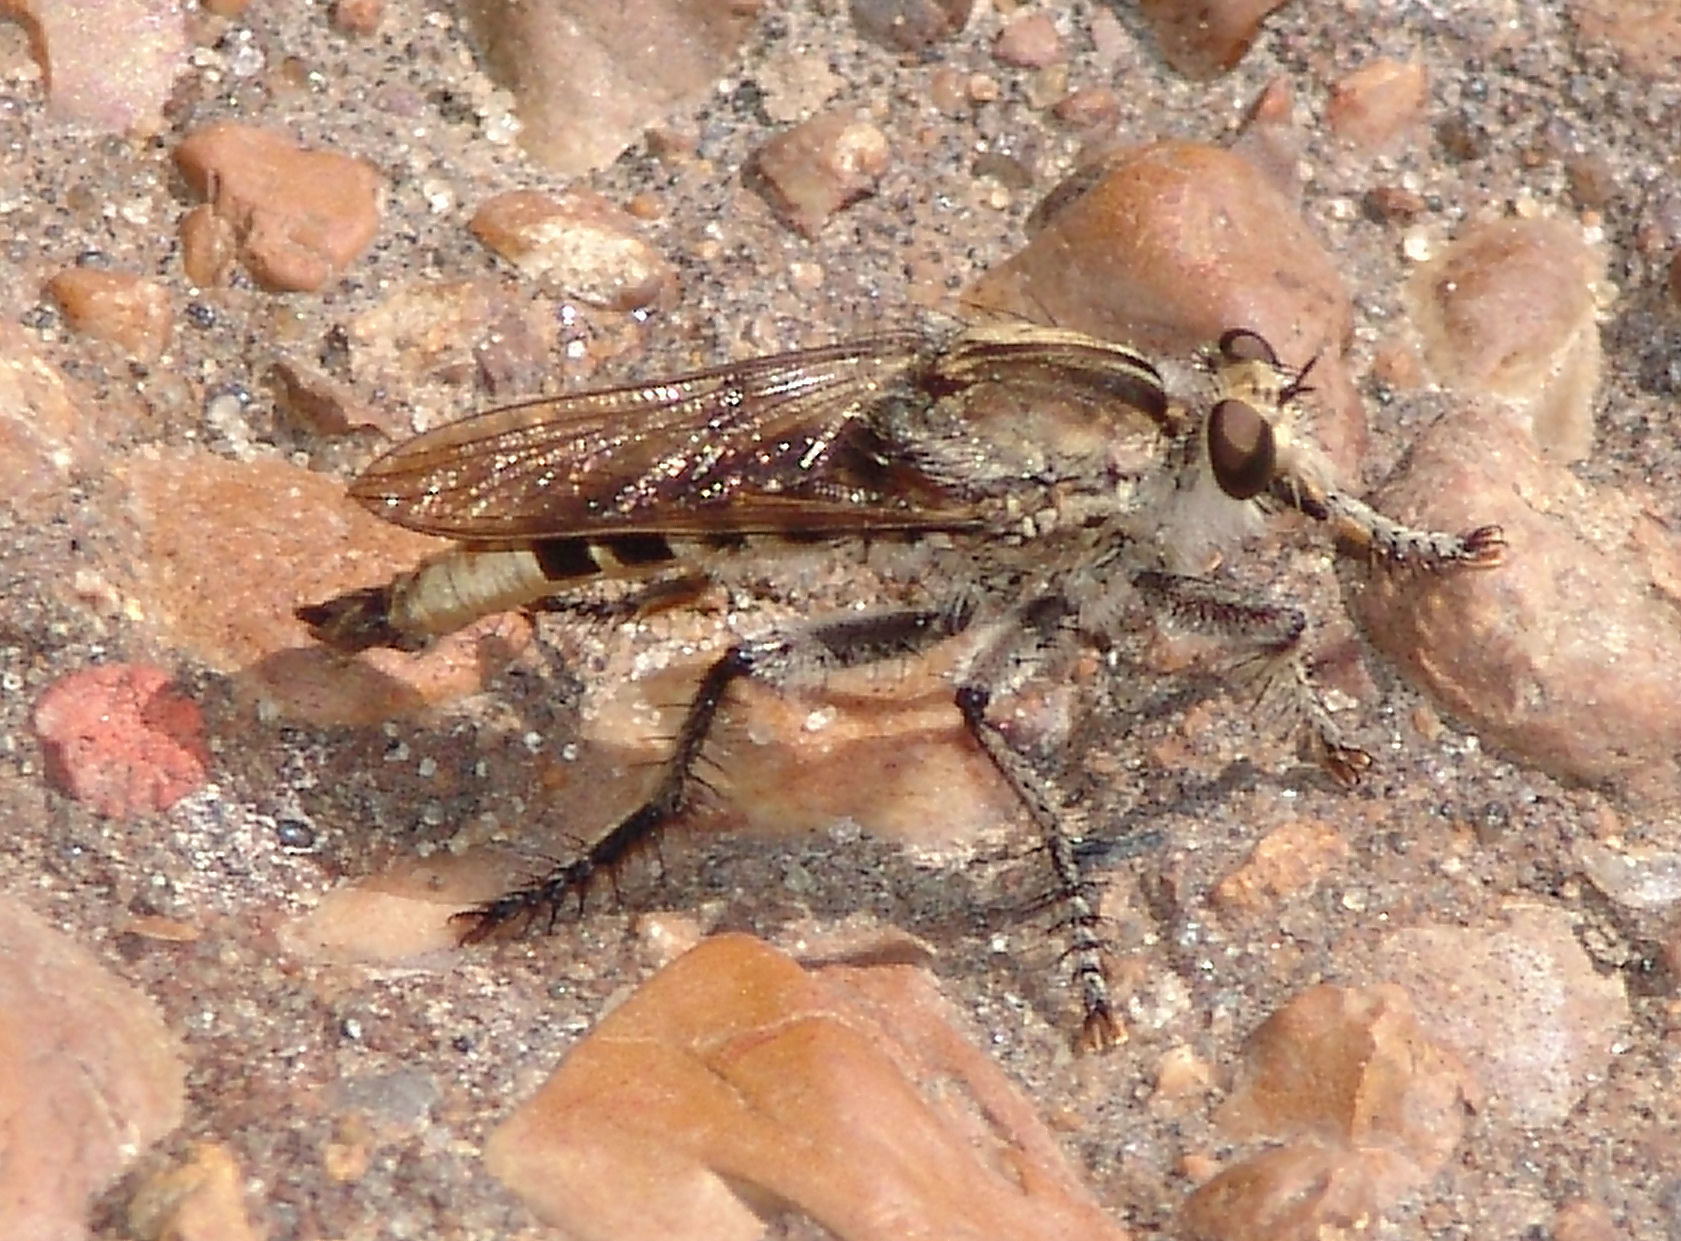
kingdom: Animalia
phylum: Arthropoda
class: Insecta
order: Diptera
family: Asilidae
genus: Triorla
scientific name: Triorla interrupta
